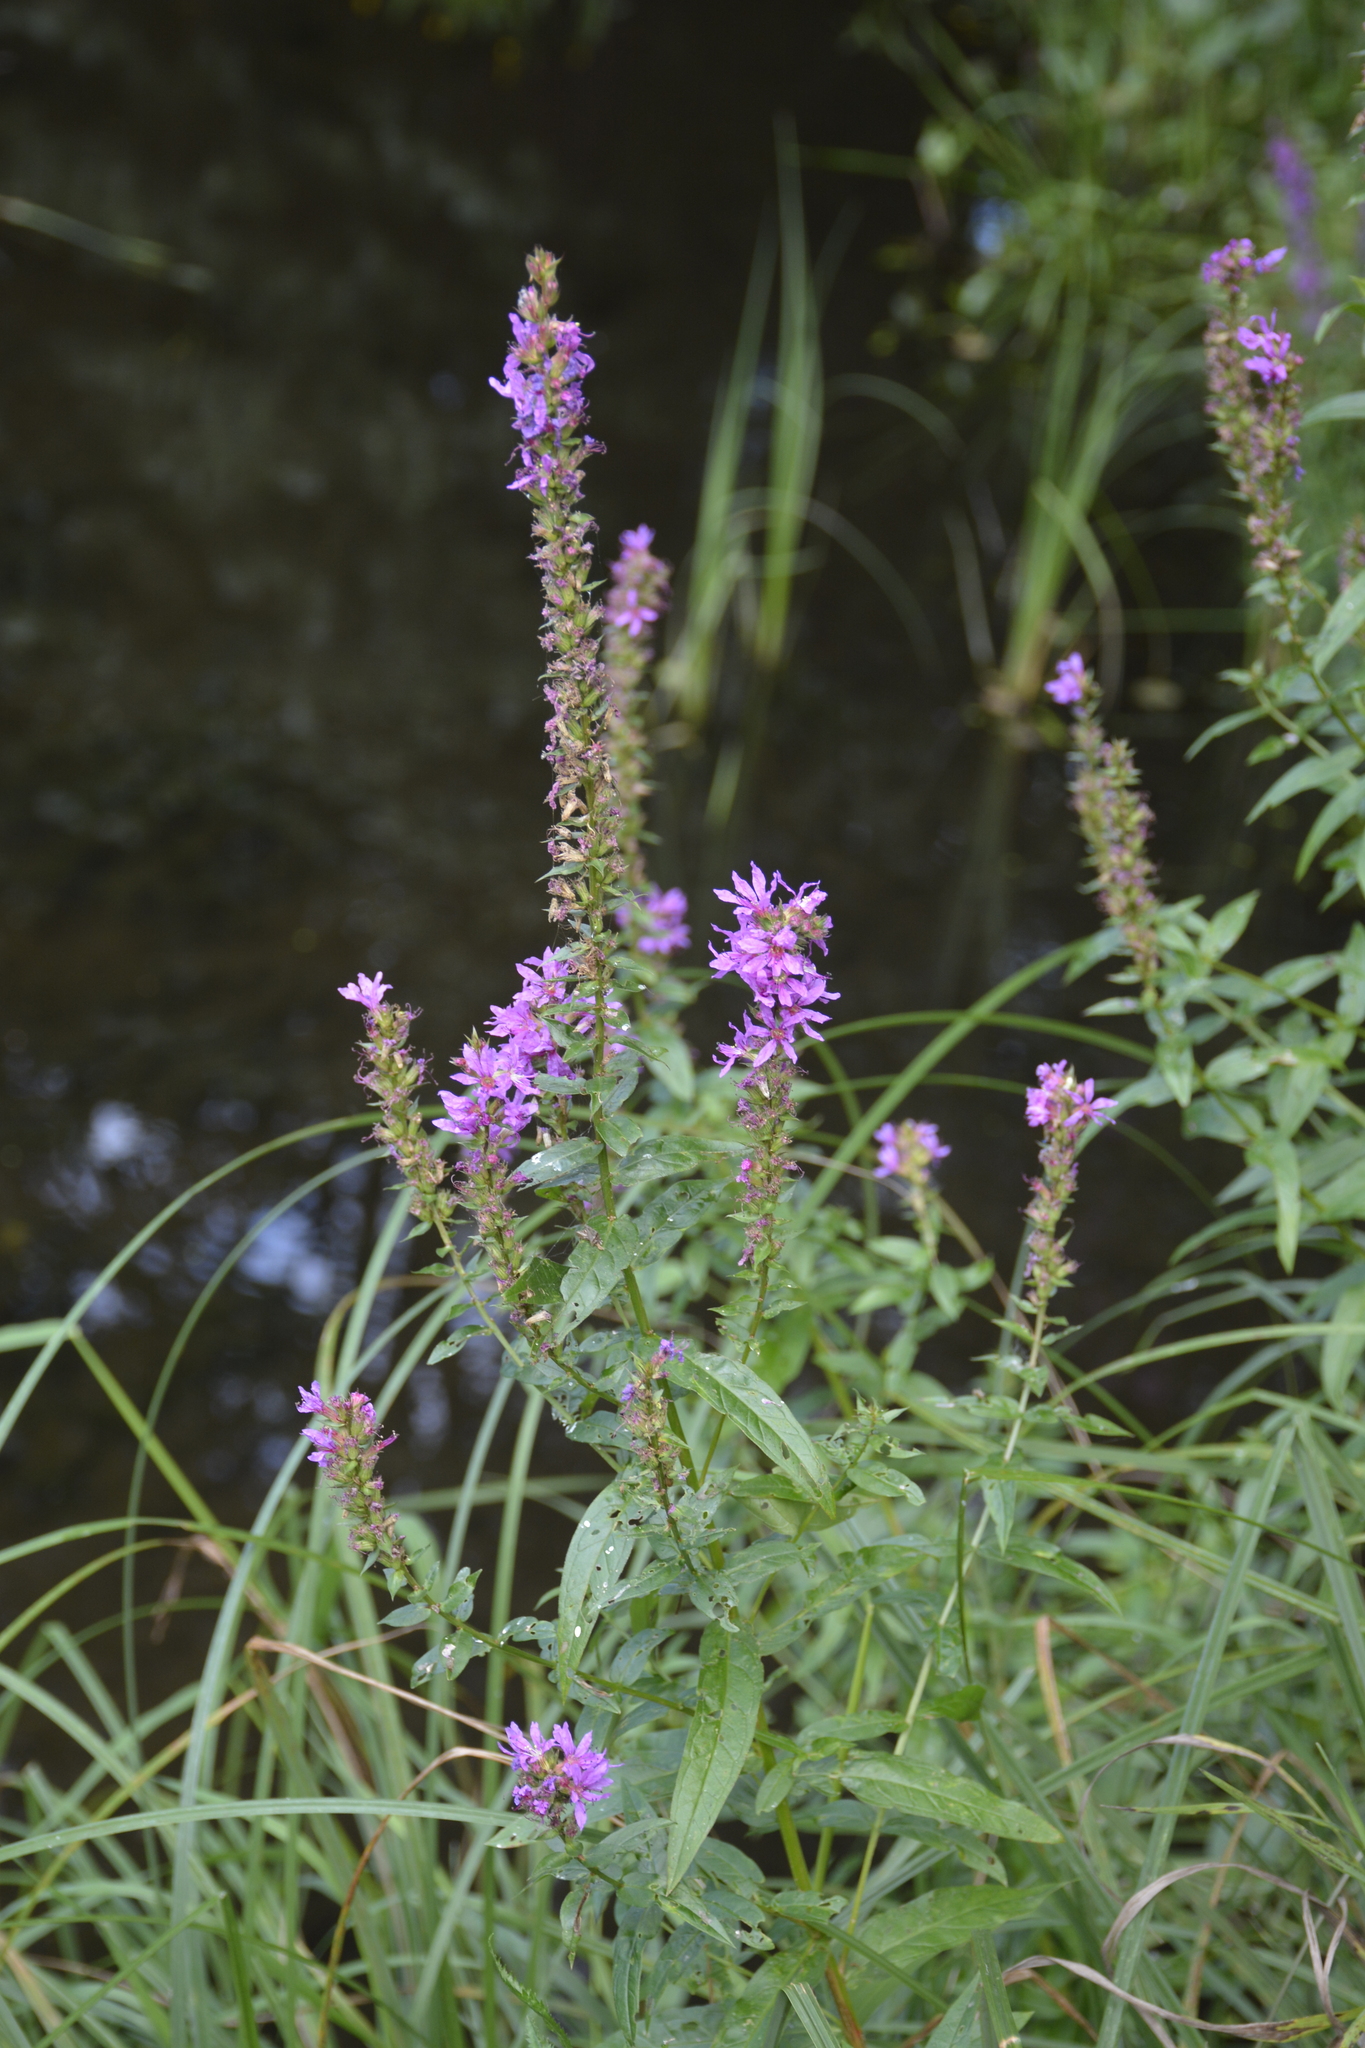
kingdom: Plantae
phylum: Tracheophyta
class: Magnoliopsida
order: Myrtales
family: Lythraceae
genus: Lythrum
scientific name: Lythrum salicaria
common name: Purple loosestrife
